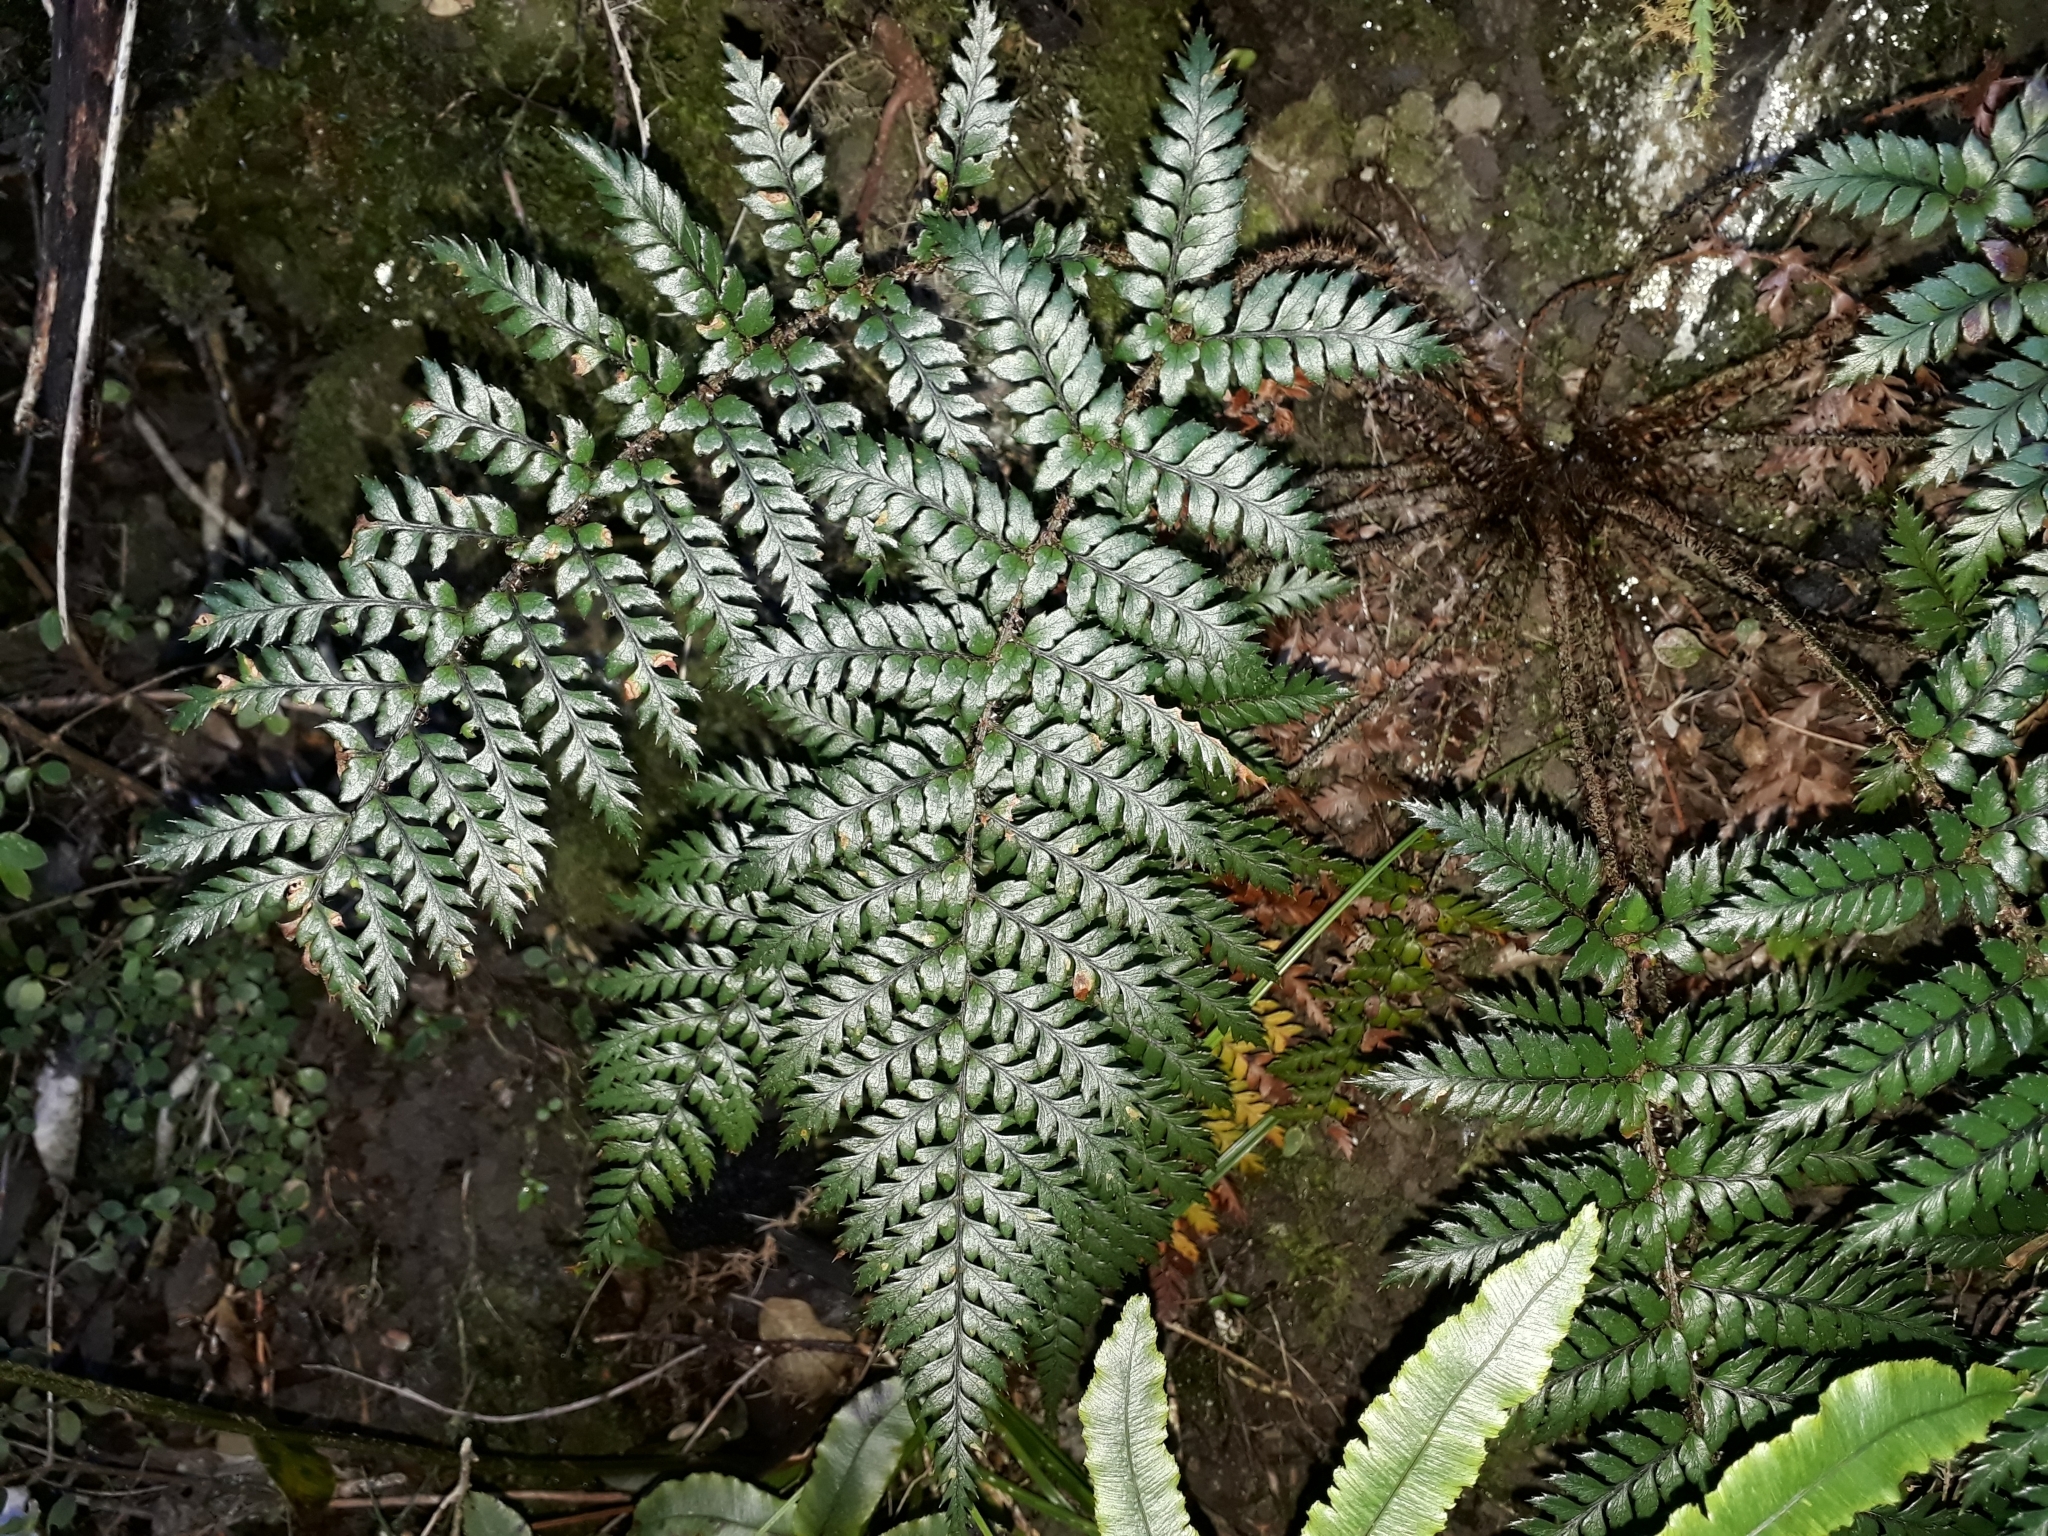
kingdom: Plantae
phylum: Tracheophyta
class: Polypodiopsida
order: Polypodiales
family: Dryopteridaceae
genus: Polystichum
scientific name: Polystichum neozelandicum
